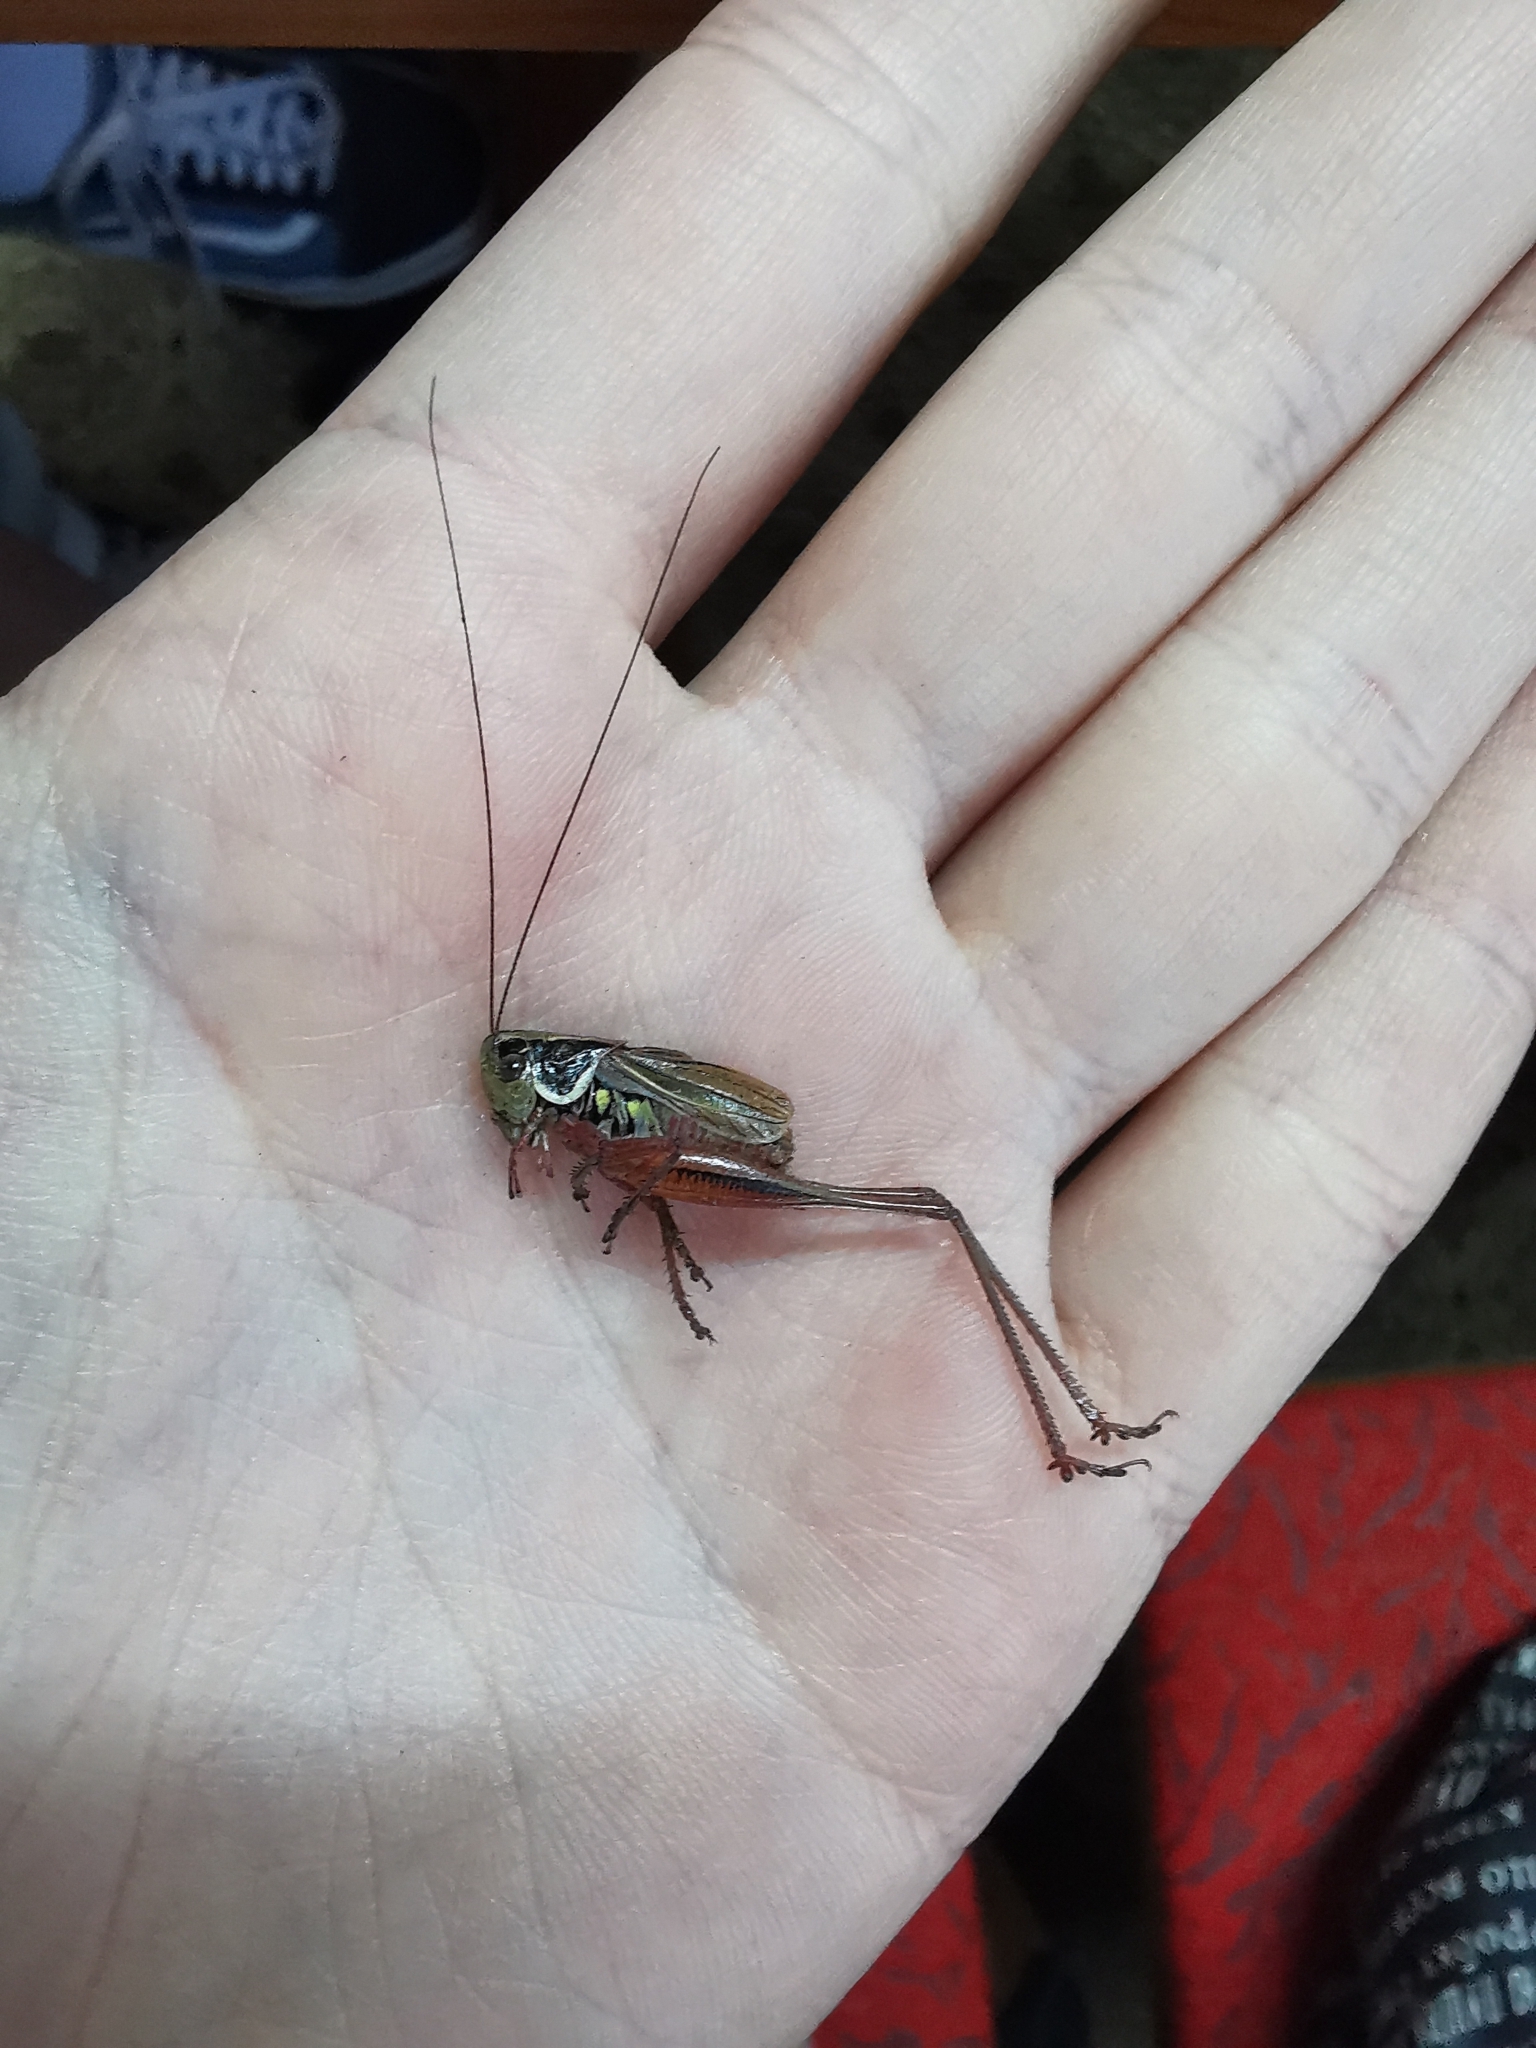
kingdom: Animalia
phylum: Arthropoda
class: Insecta
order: Orthoptera
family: Tettigoniidae
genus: Roeseliana
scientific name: Roeseliana roeselii
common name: Roesel's bush cricket
